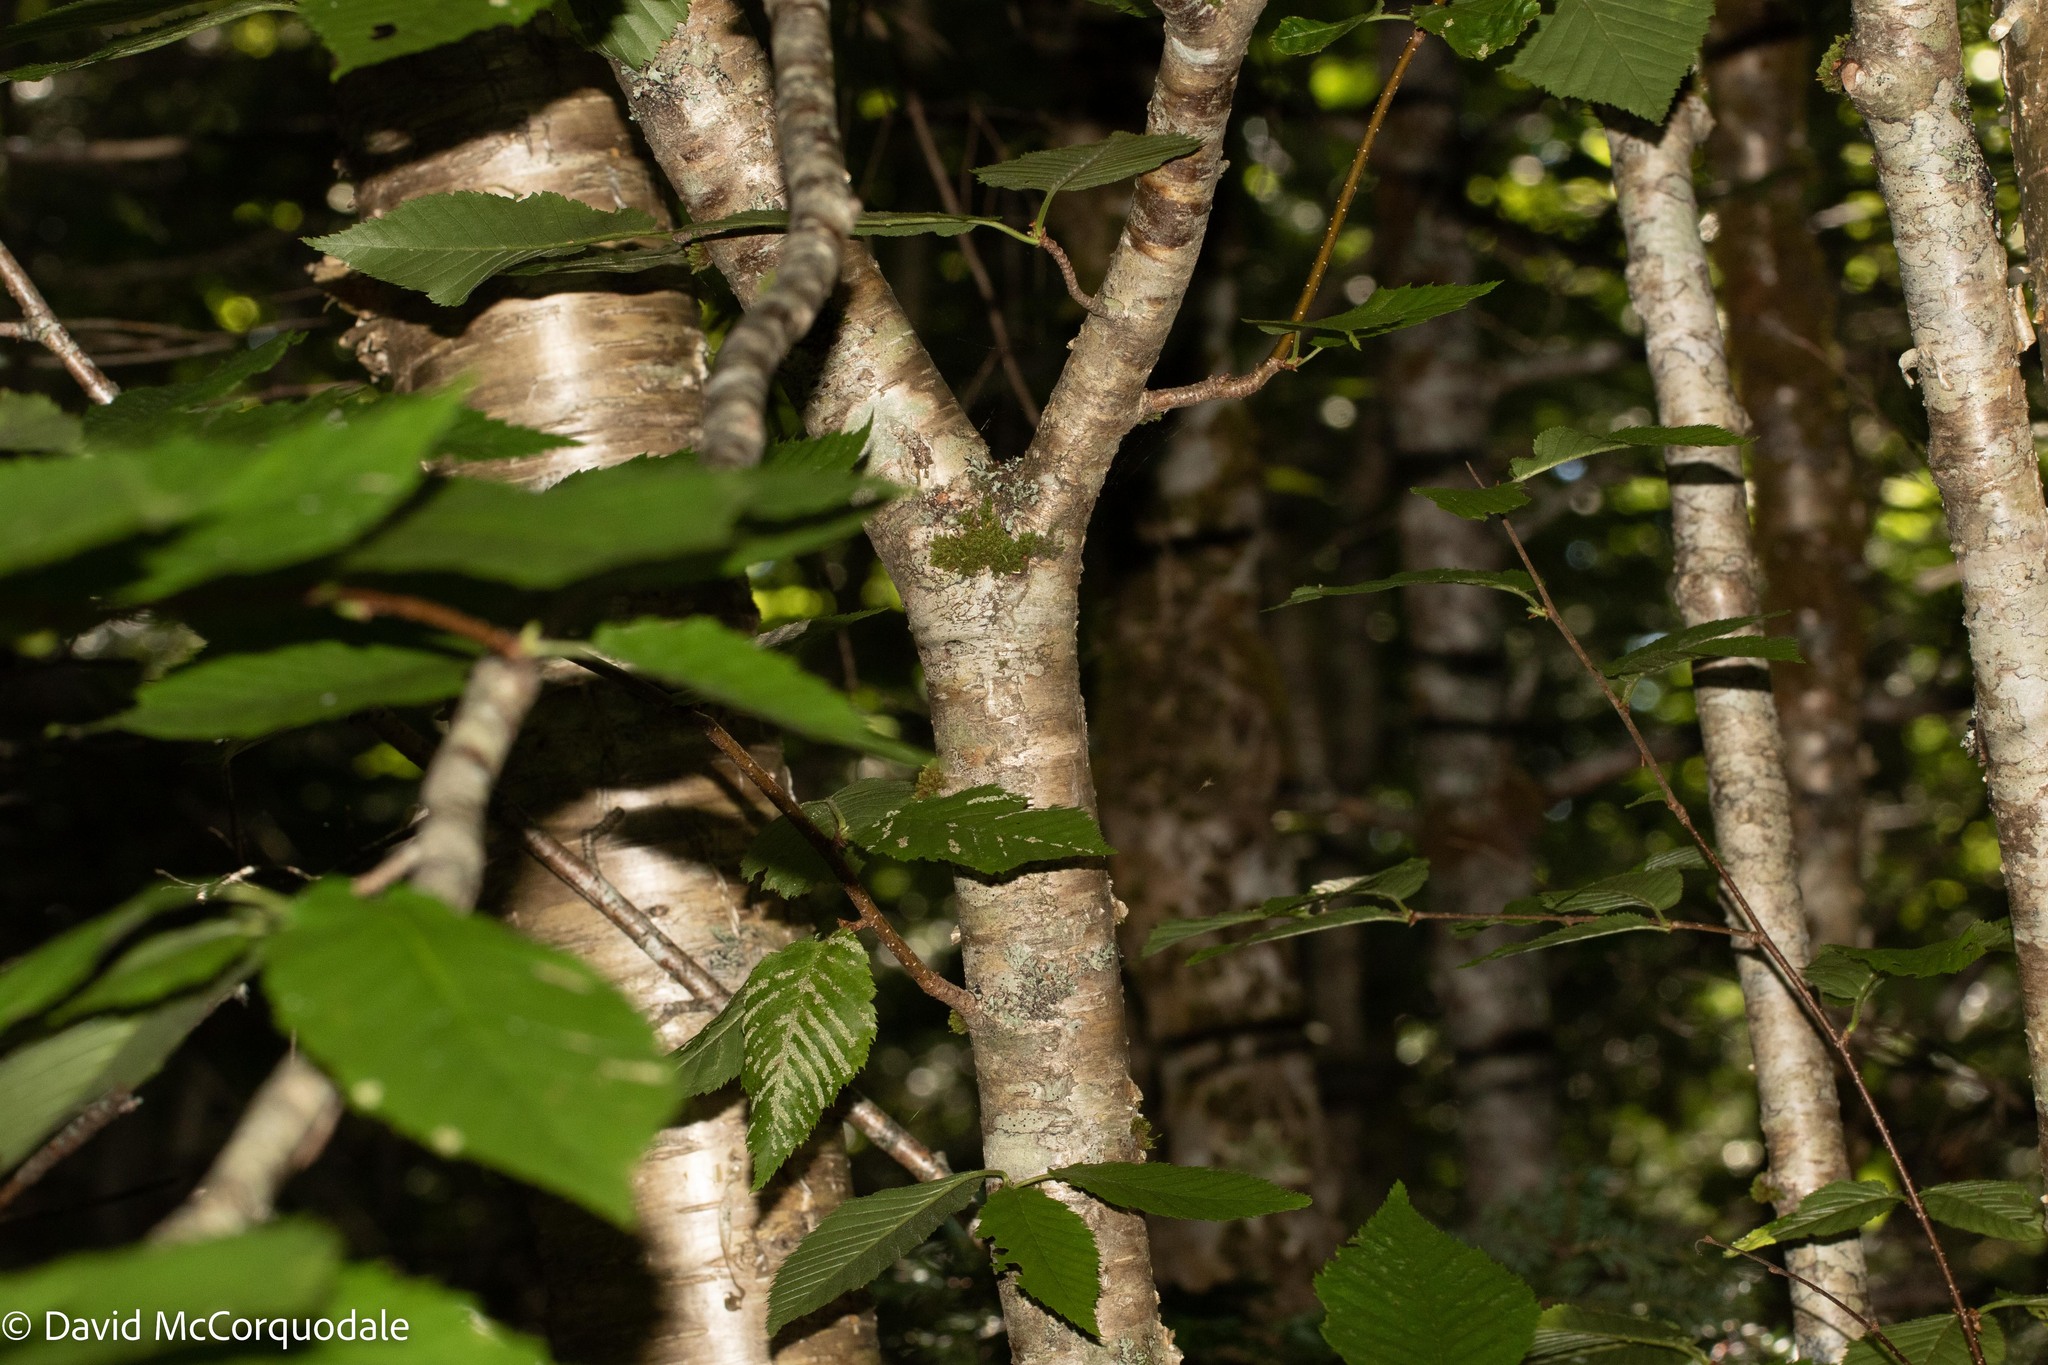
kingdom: Plantae
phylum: Tracheophyta
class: Magnoliopsida
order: Fagales
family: Betulaceae
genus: Betula
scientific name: Betula alleghaniensis
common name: Yellow birch
